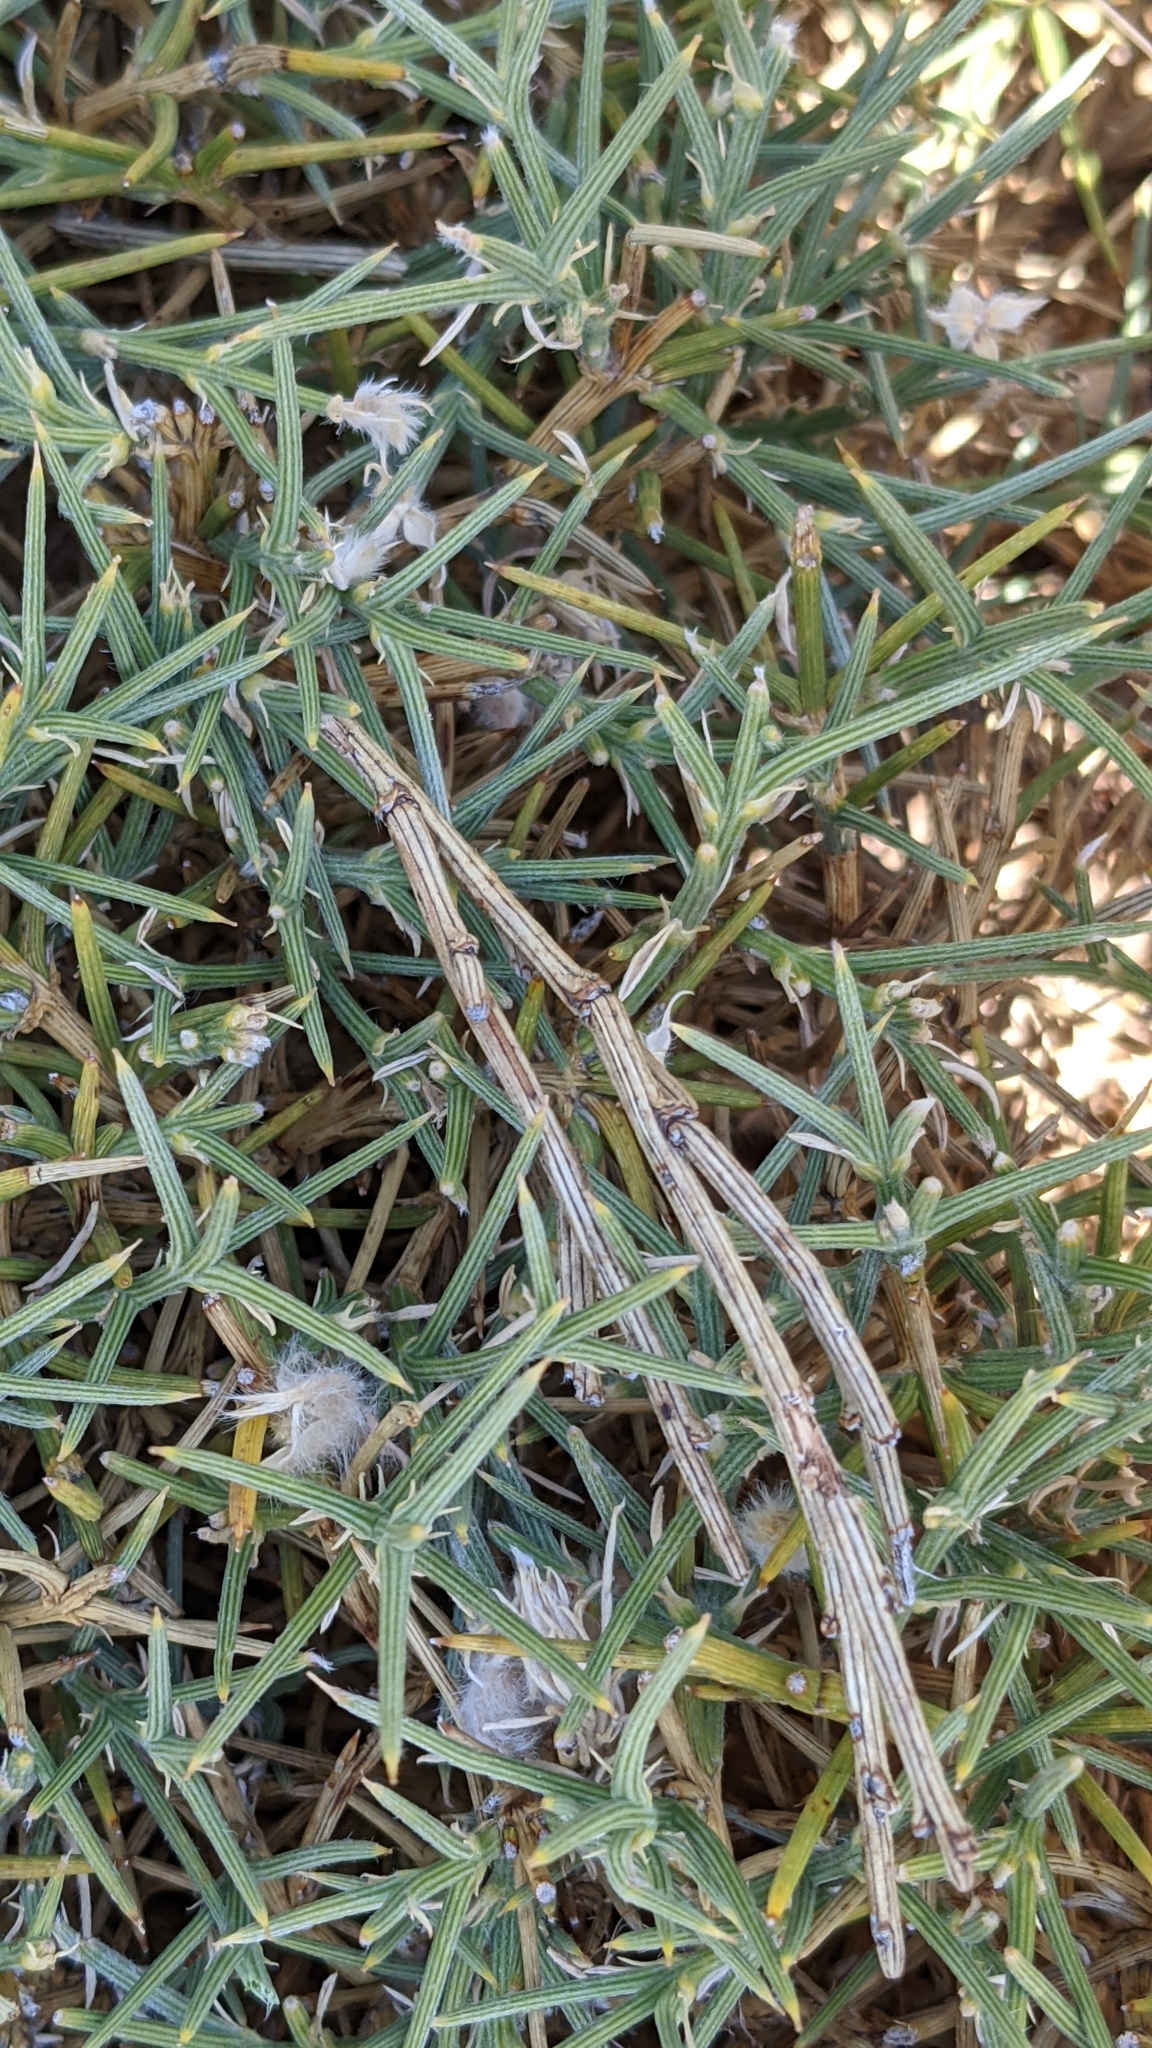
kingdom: Plantae
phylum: Tracheophyta
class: Magnoliopsida
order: Fabales
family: Fabaceae
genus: Echinospartum
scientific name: Echinospartum ibericum
